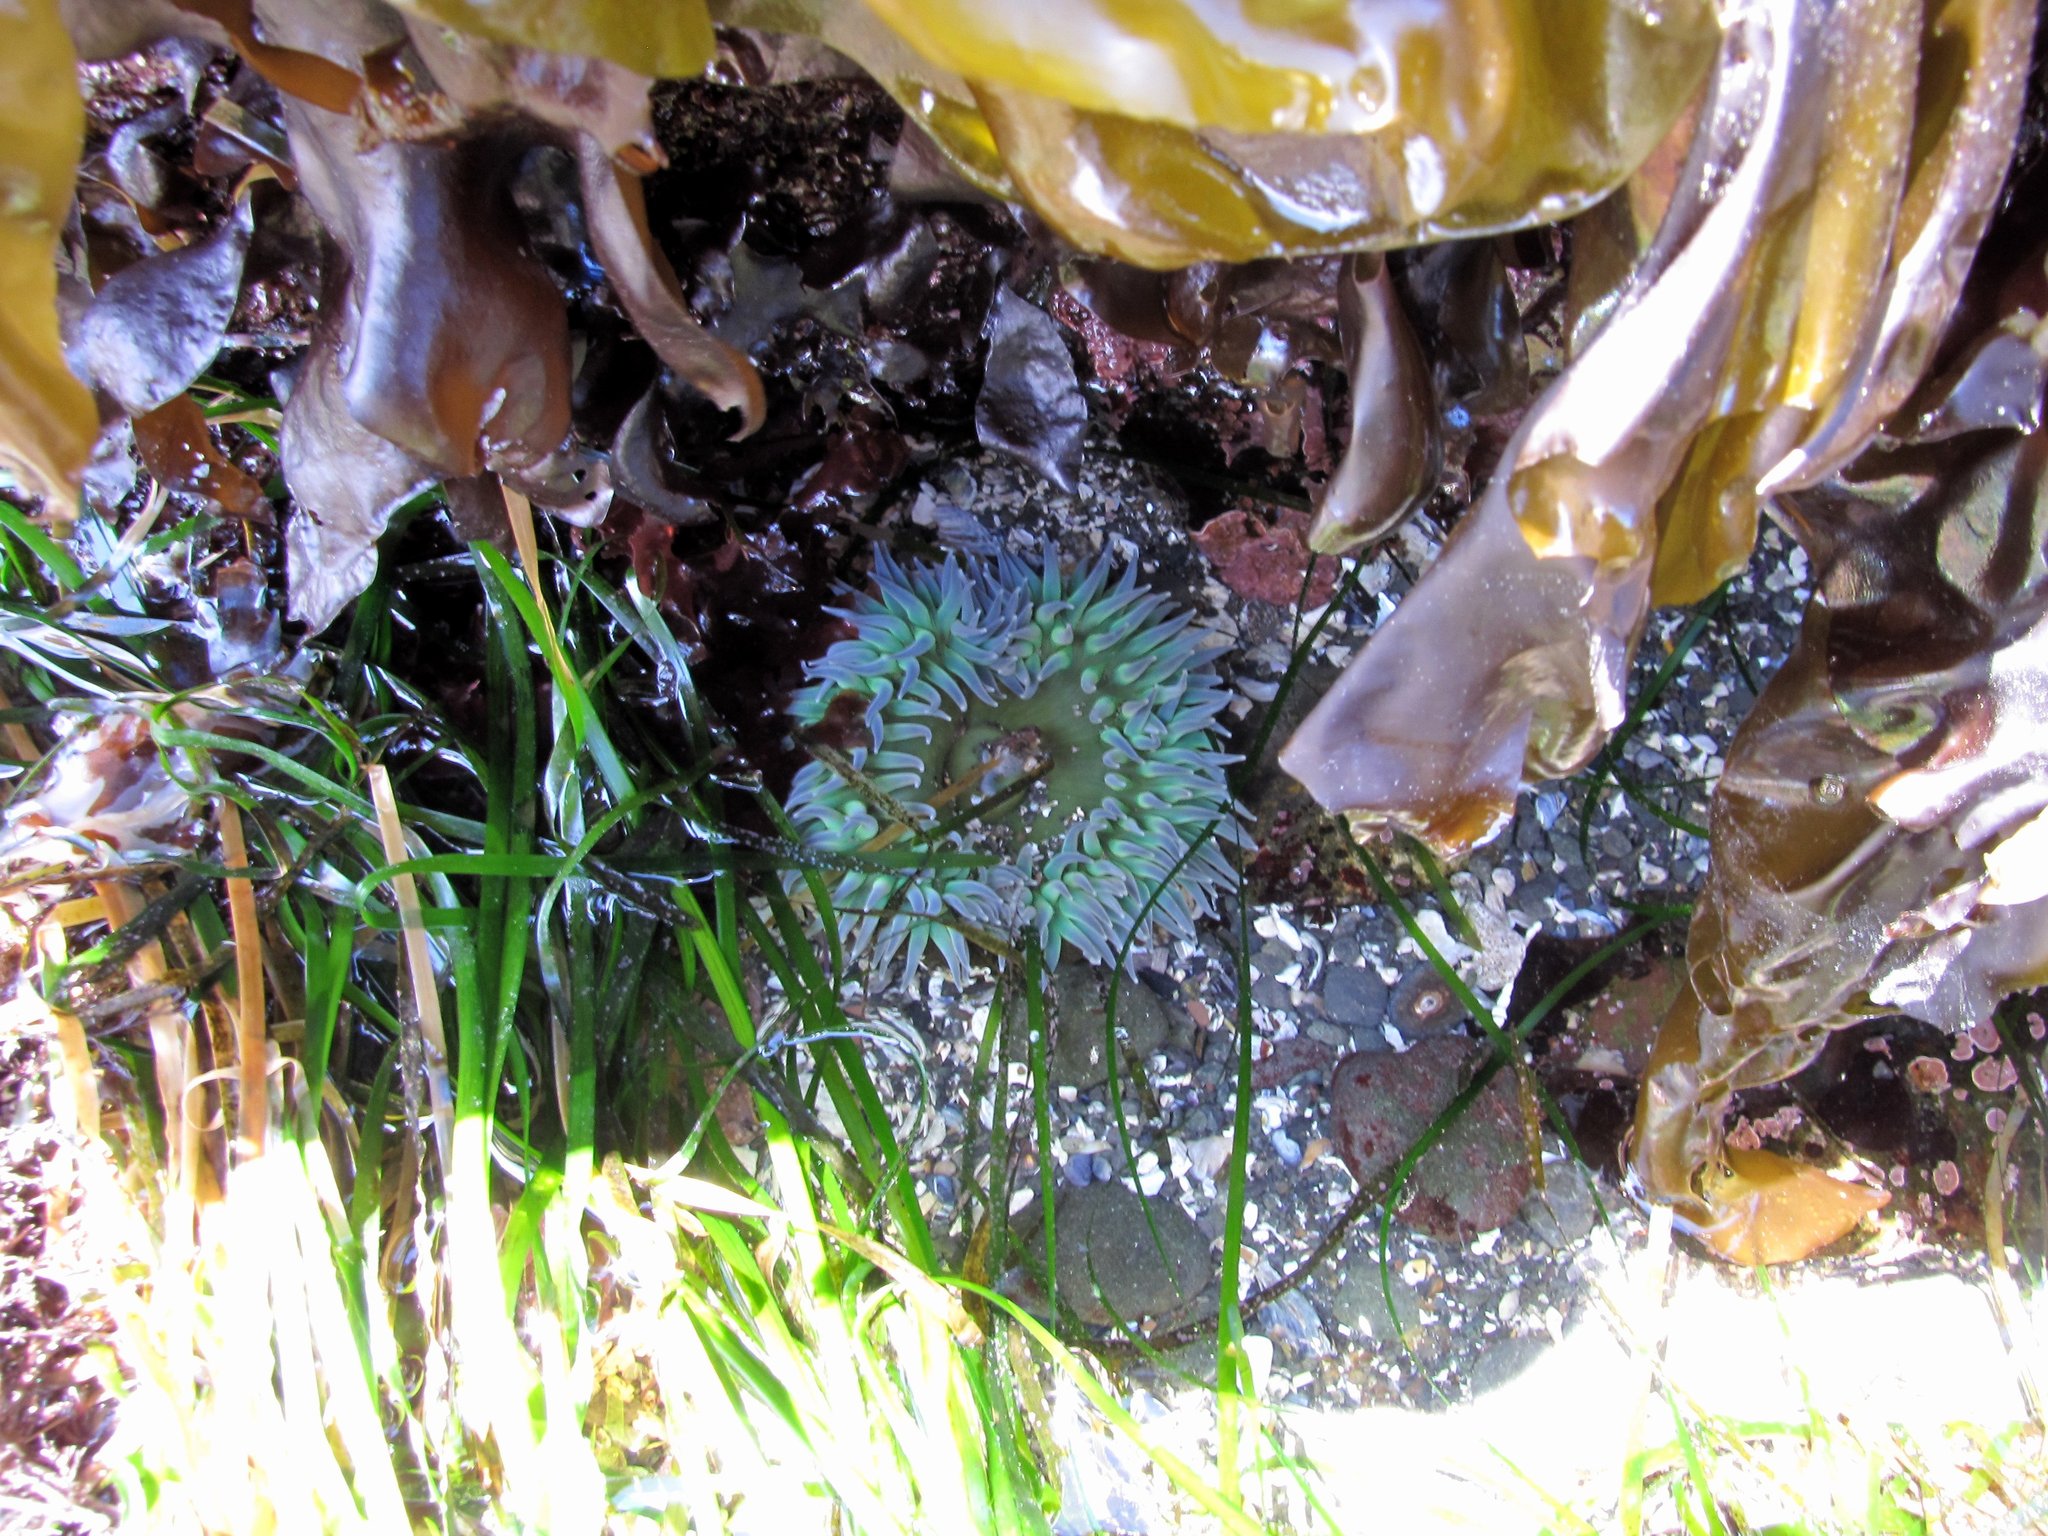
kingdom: Animalia
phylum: Cnidaria
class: Anthozoa
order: Actiniaria
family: Actiniidae
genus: Anthopleura
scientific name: Anthopleura xanthogrammica
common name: Giant green anemone
